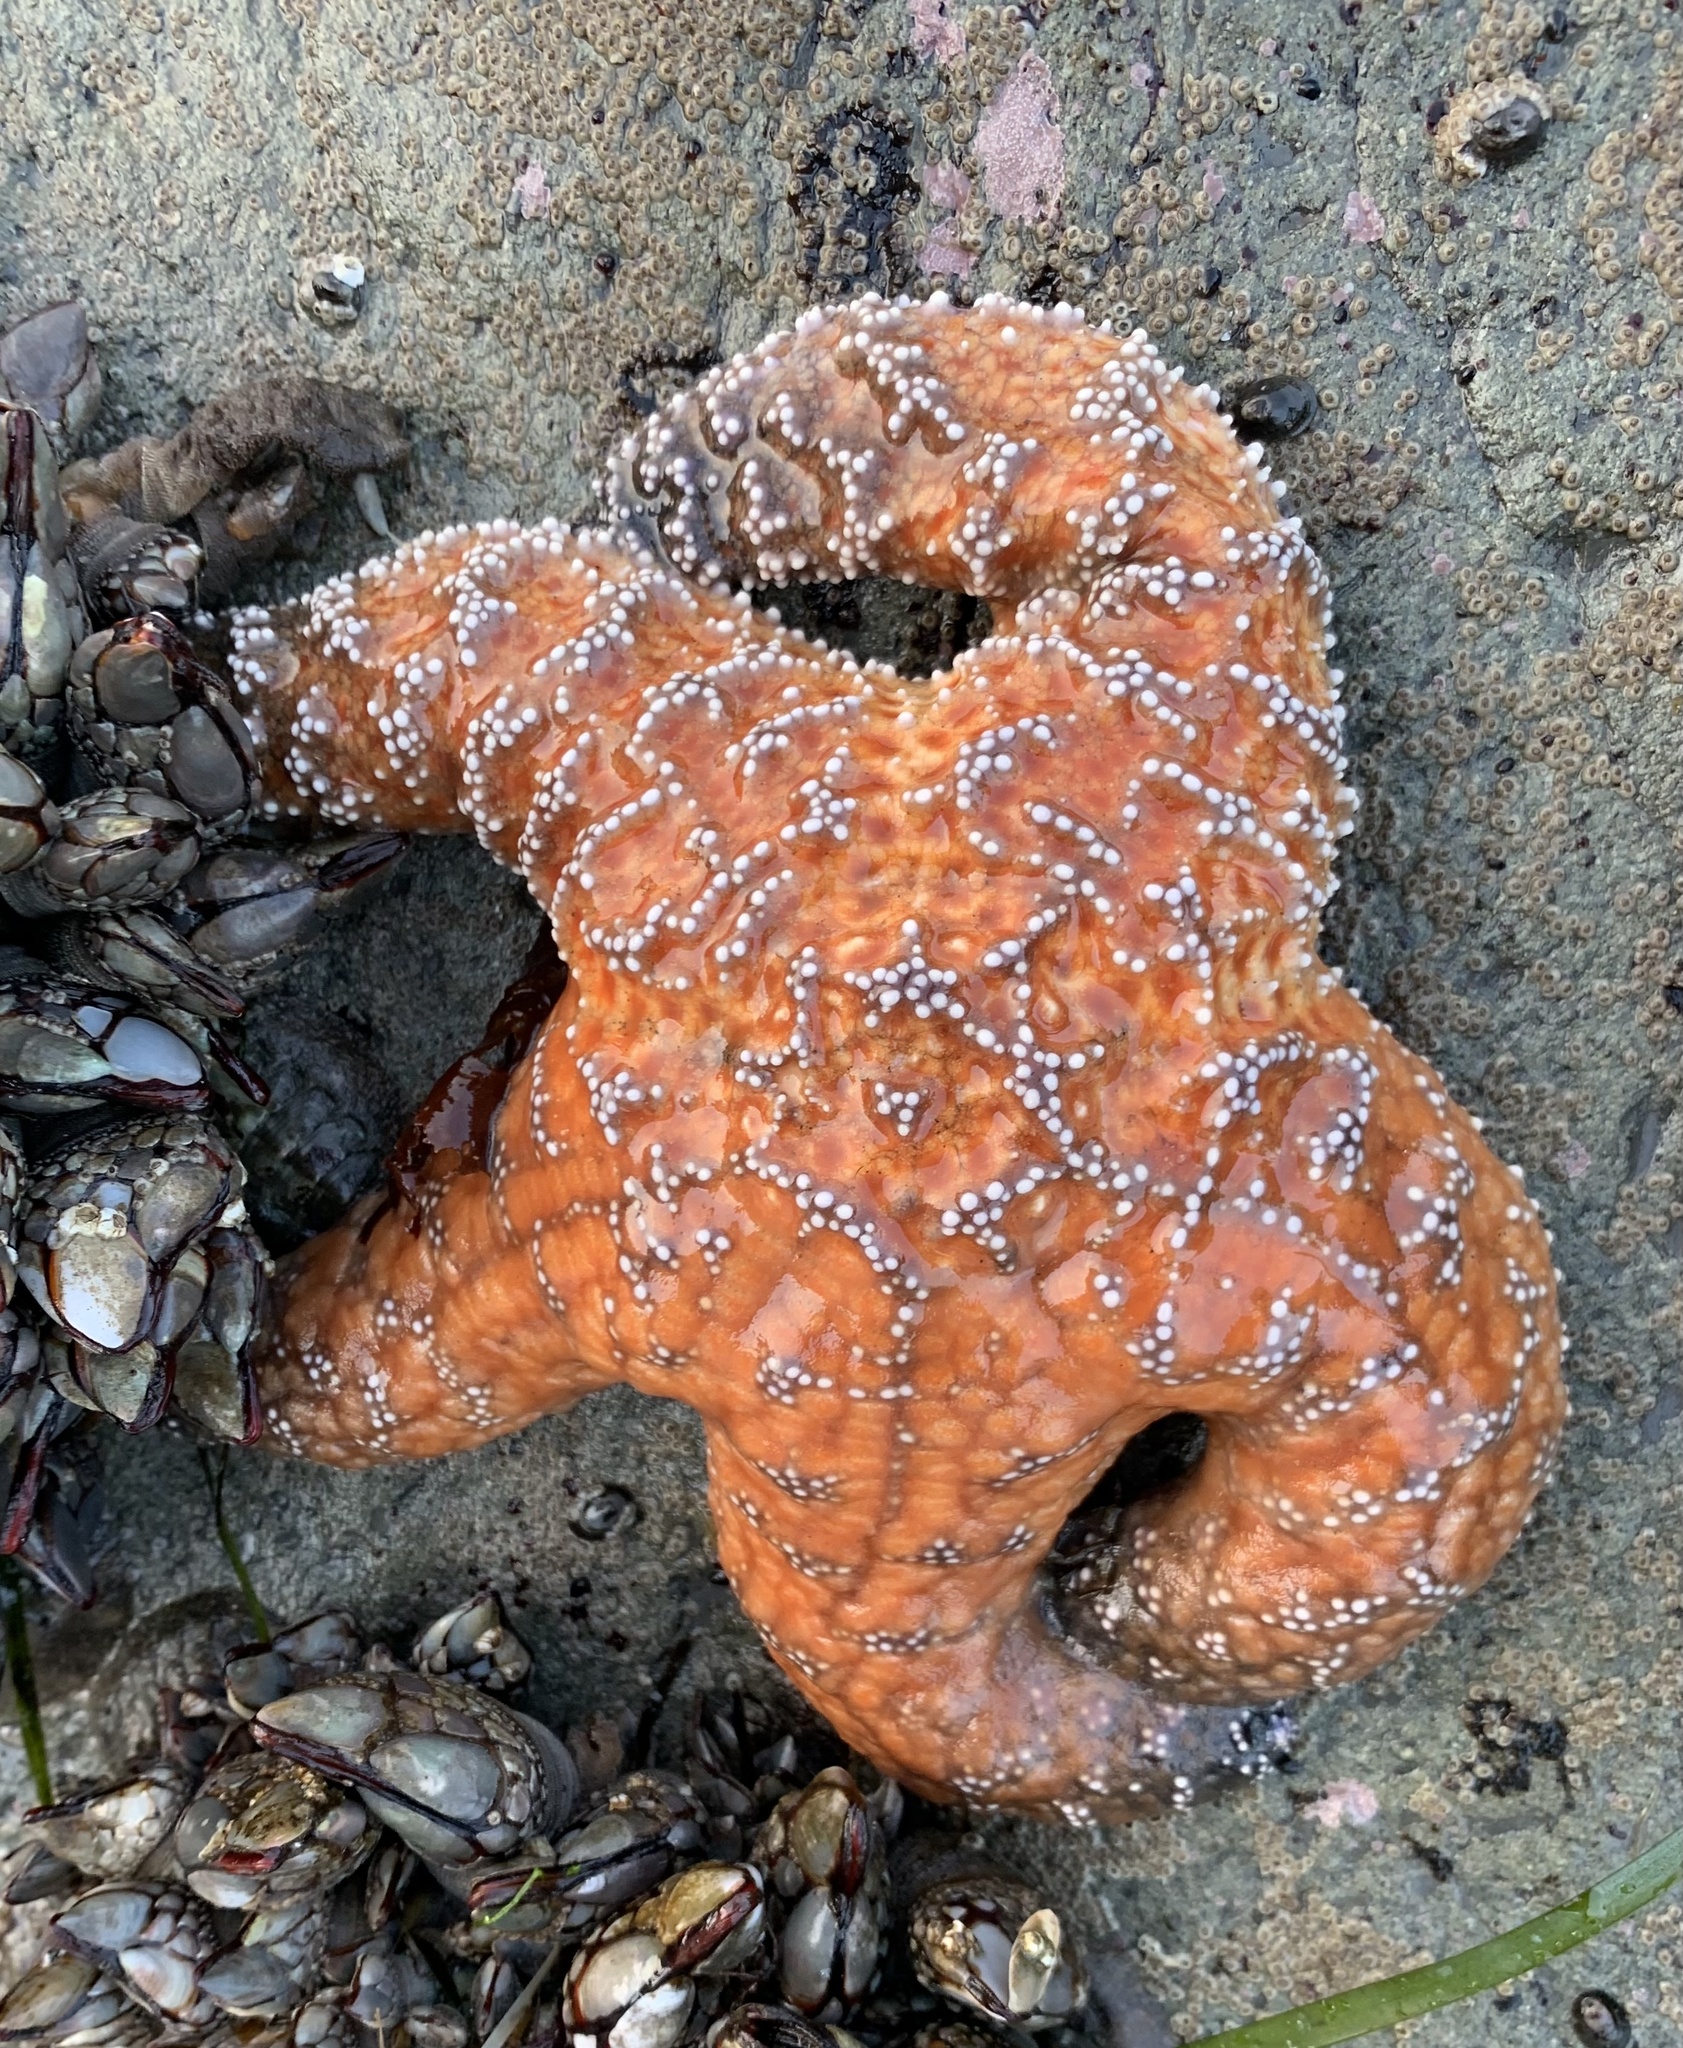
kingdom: Animalia
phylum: Echinodermata
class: Asteroidea
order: Forcipulatida
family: Asteriidae
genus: Pisaster
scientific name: Pisaster ochraceus
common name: Ochre stars
